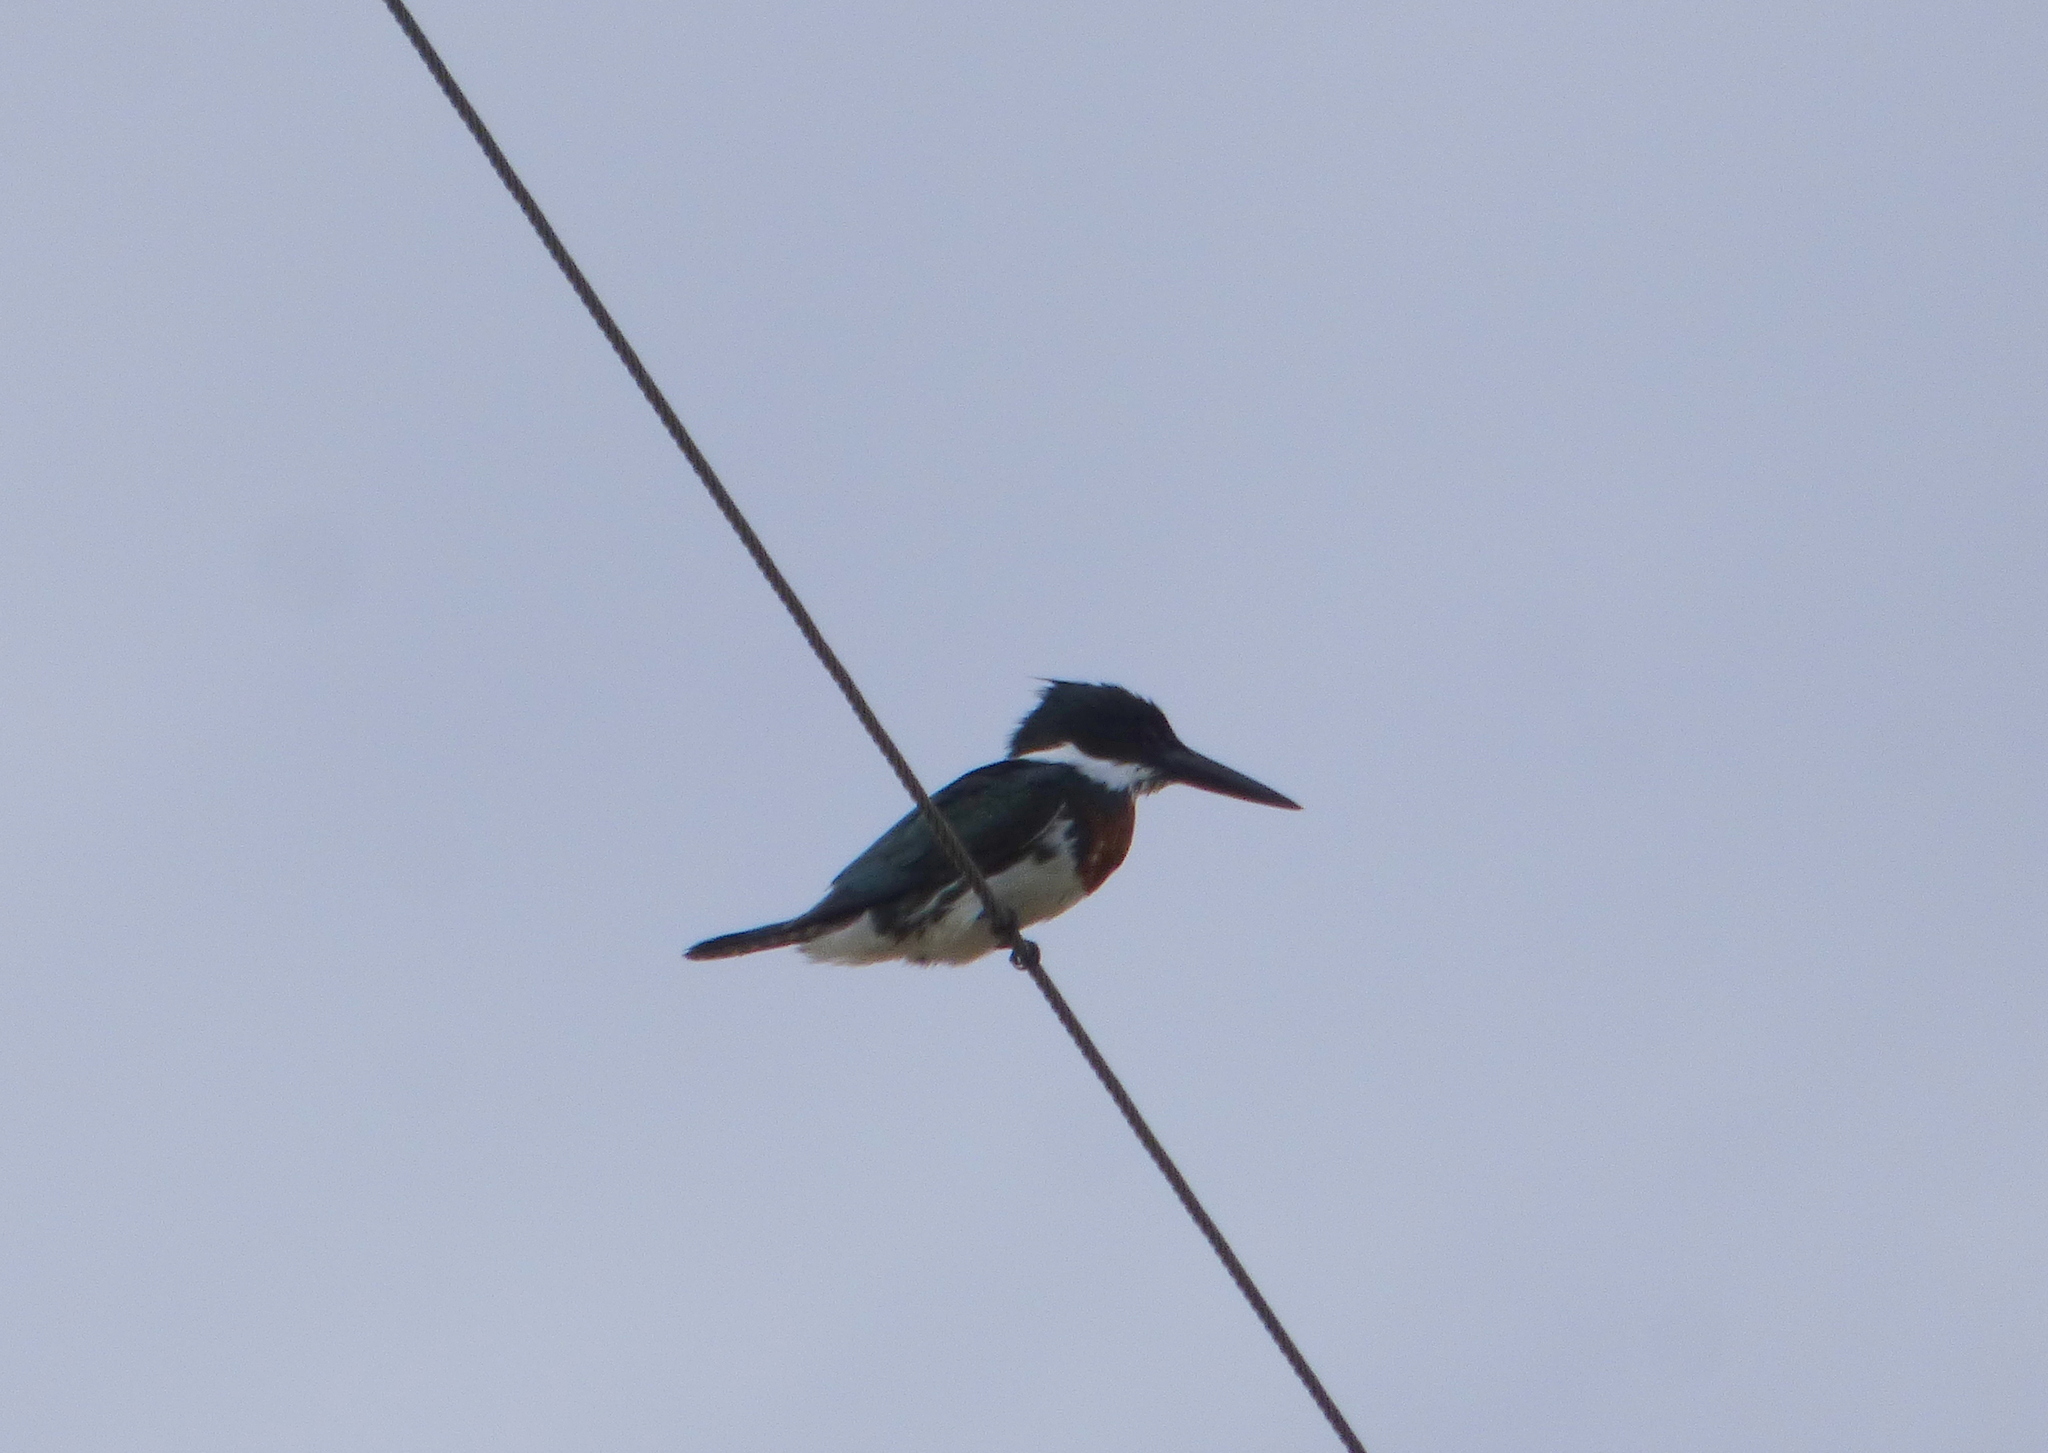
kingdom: Animalia
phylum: Chordata
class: Aves
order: Coraciiformes
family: Alcedinidae
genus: Chloroceryle
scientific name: Chloroceryle amazona
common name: Amazon kingfisher
